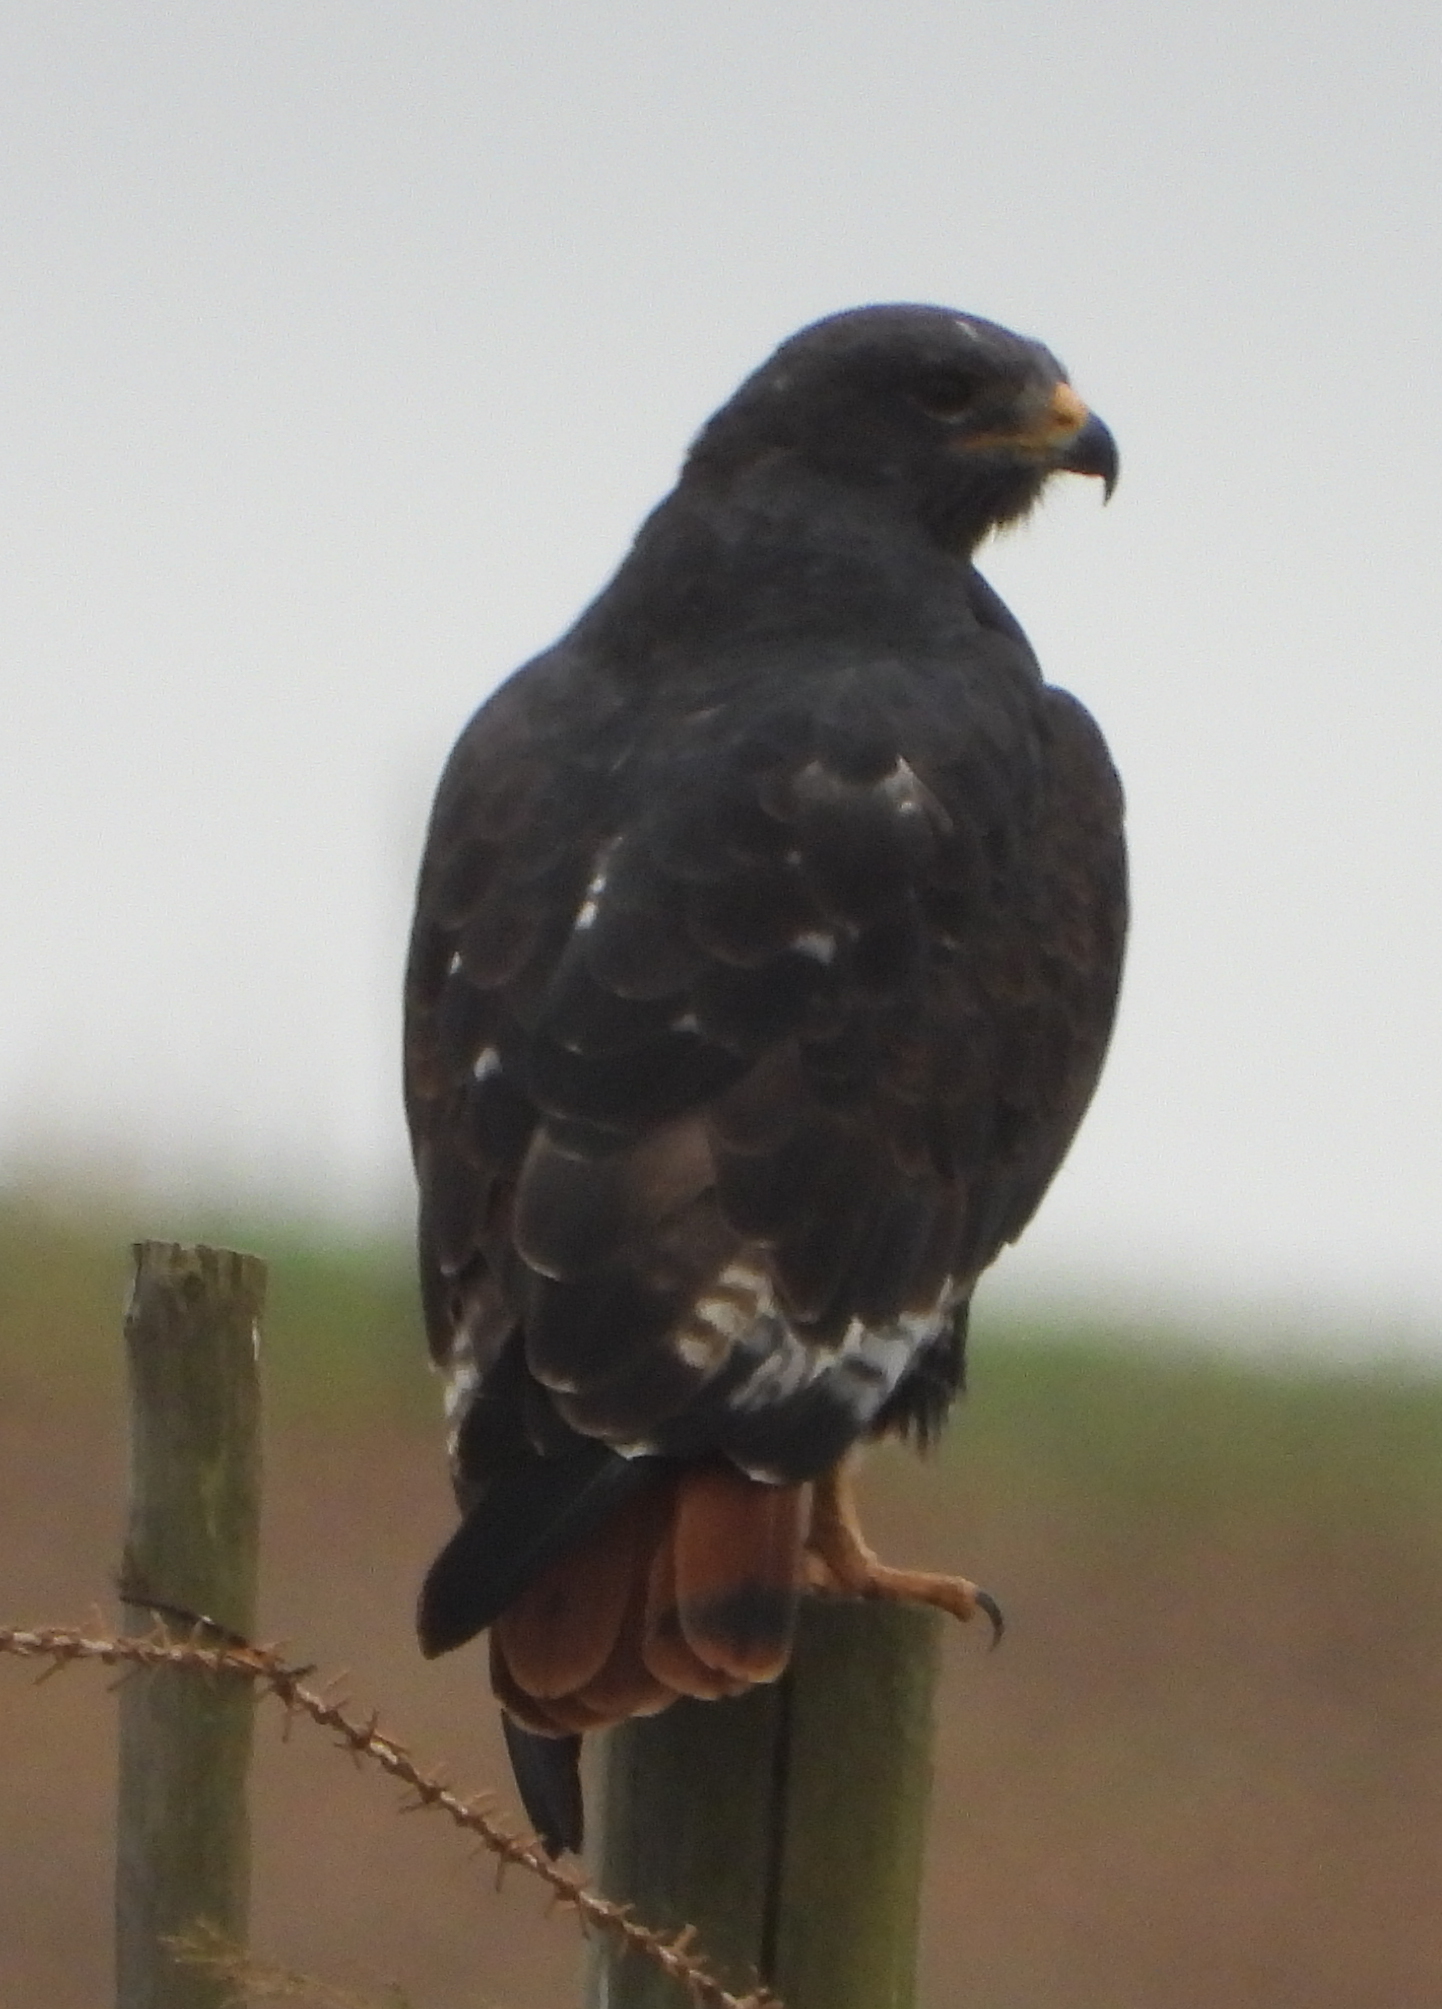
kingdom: Animalia
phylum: Chordata
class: Aves
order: Accipitriformes
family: Accipitridae
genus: Buteo
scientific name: Buteo rufofuscus
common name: Jackal buzzard
